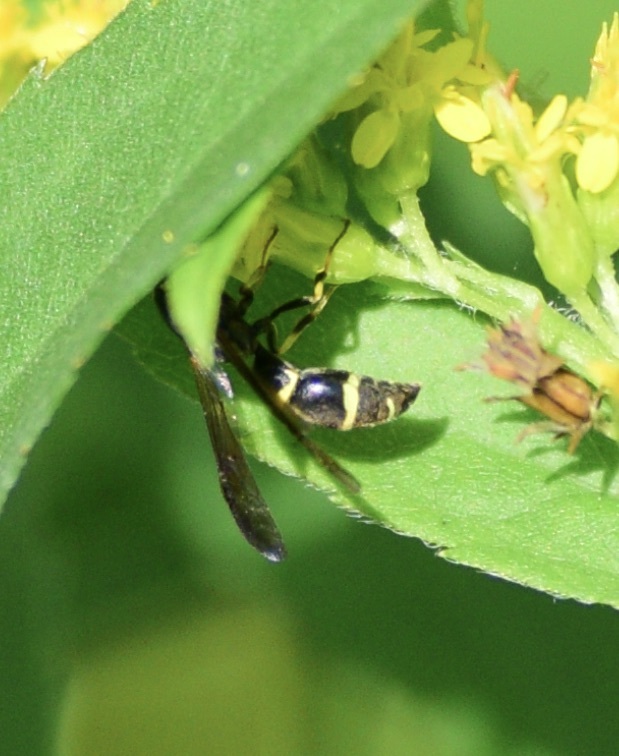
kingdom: Animalia
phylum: Arthropoda
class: Insecta
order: Hymenoptera
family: Eumenidae
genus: Symmorphus
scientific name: Symmorphus
